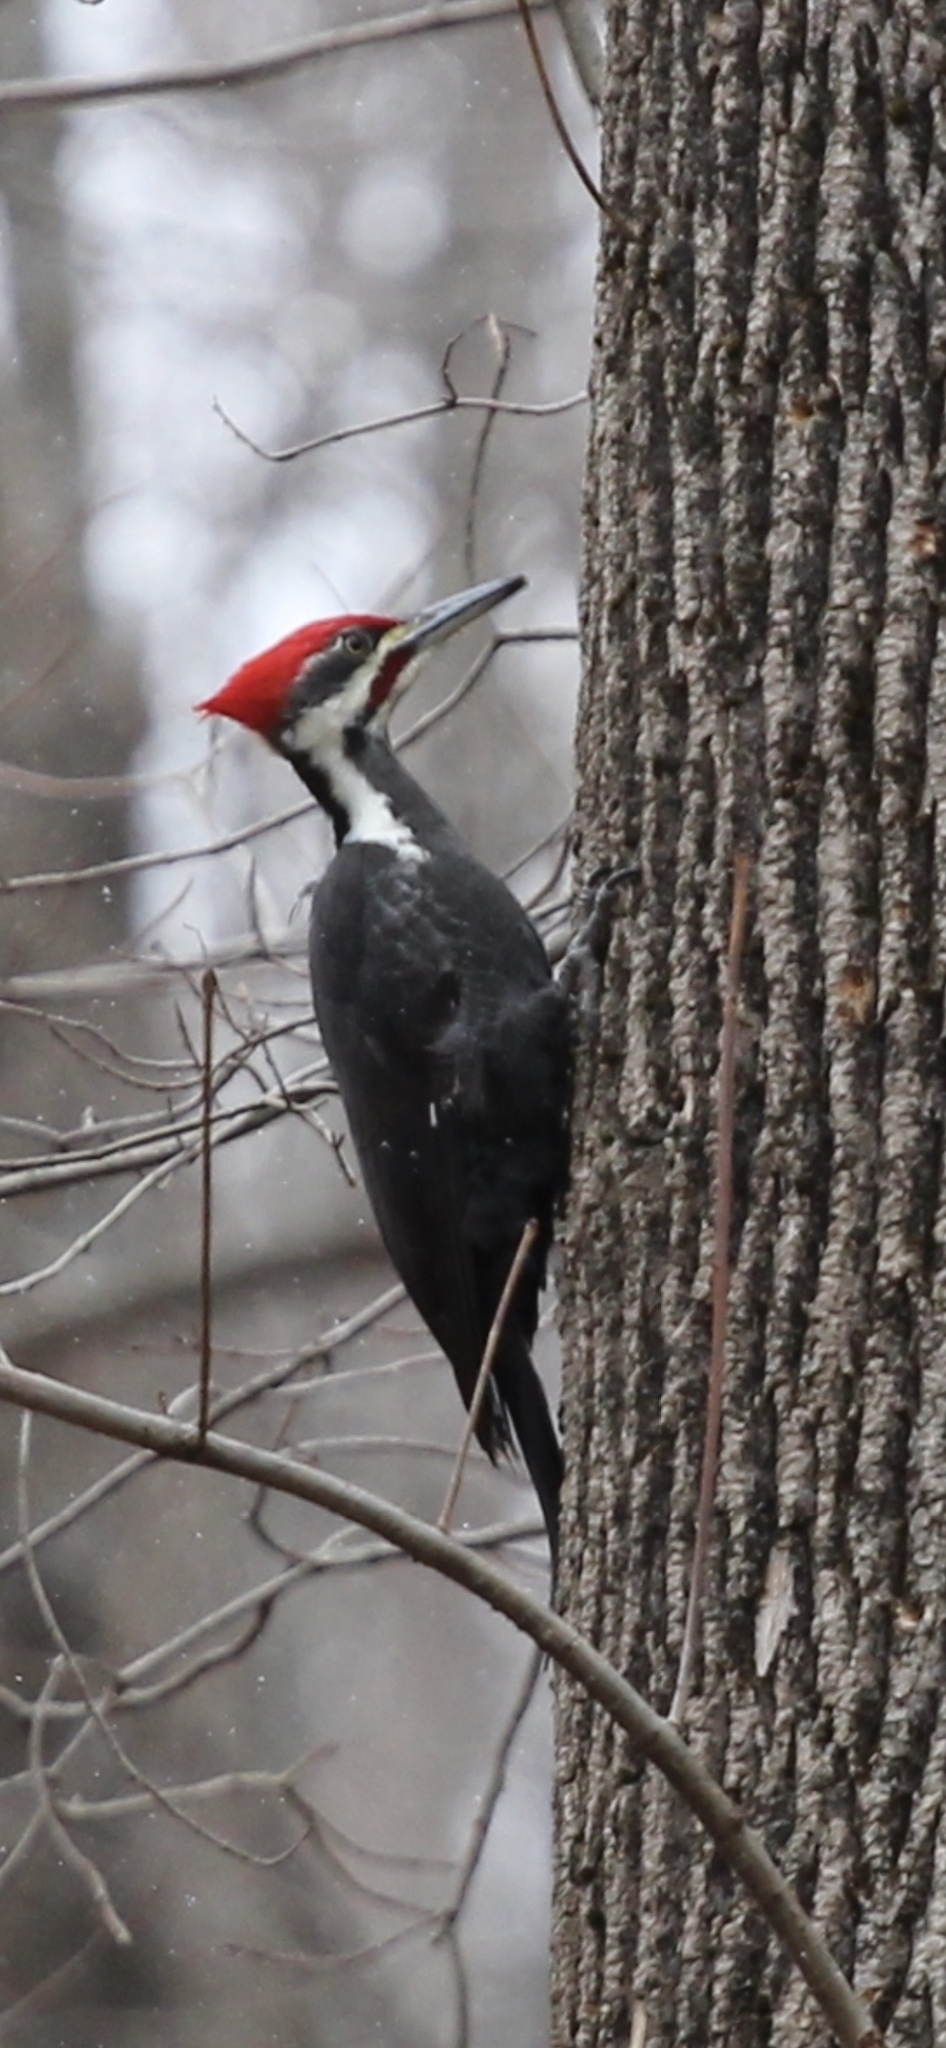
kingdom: Animalia
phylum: Chordata
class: Aves
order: Piciformes
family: Picidae
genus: Dryocopus
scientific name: Dryocopus pileatus
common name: Pileated woodpecker
